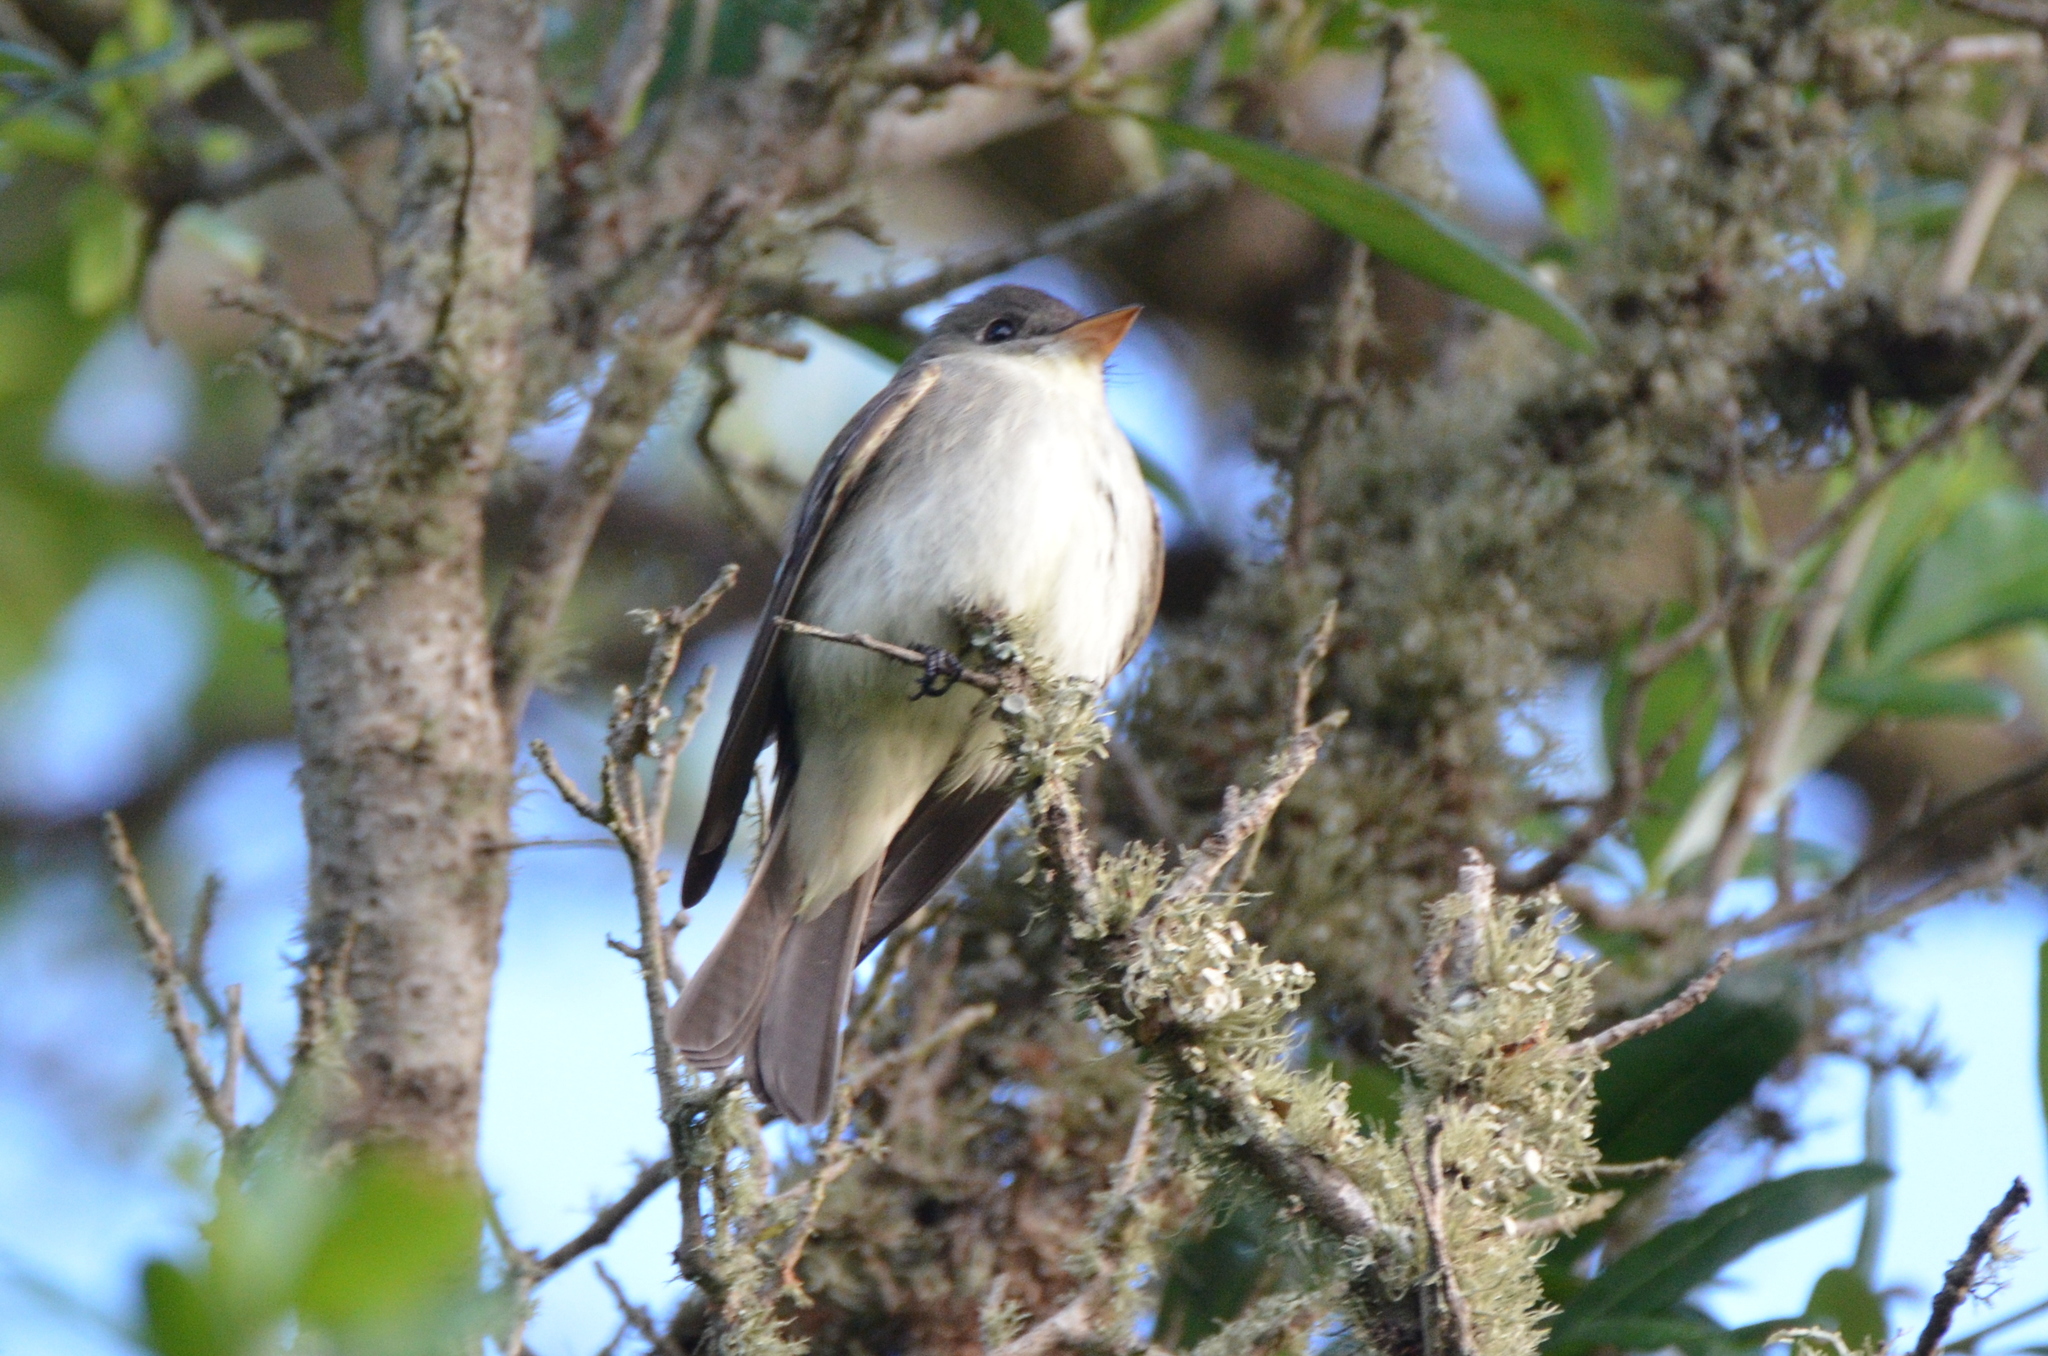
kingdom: Animalia
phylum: Chordata
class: Aves
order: Passeriformes
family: Tyrannidae
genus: Contopus
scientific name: Contopus virens
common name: Eastern wood-pewee
